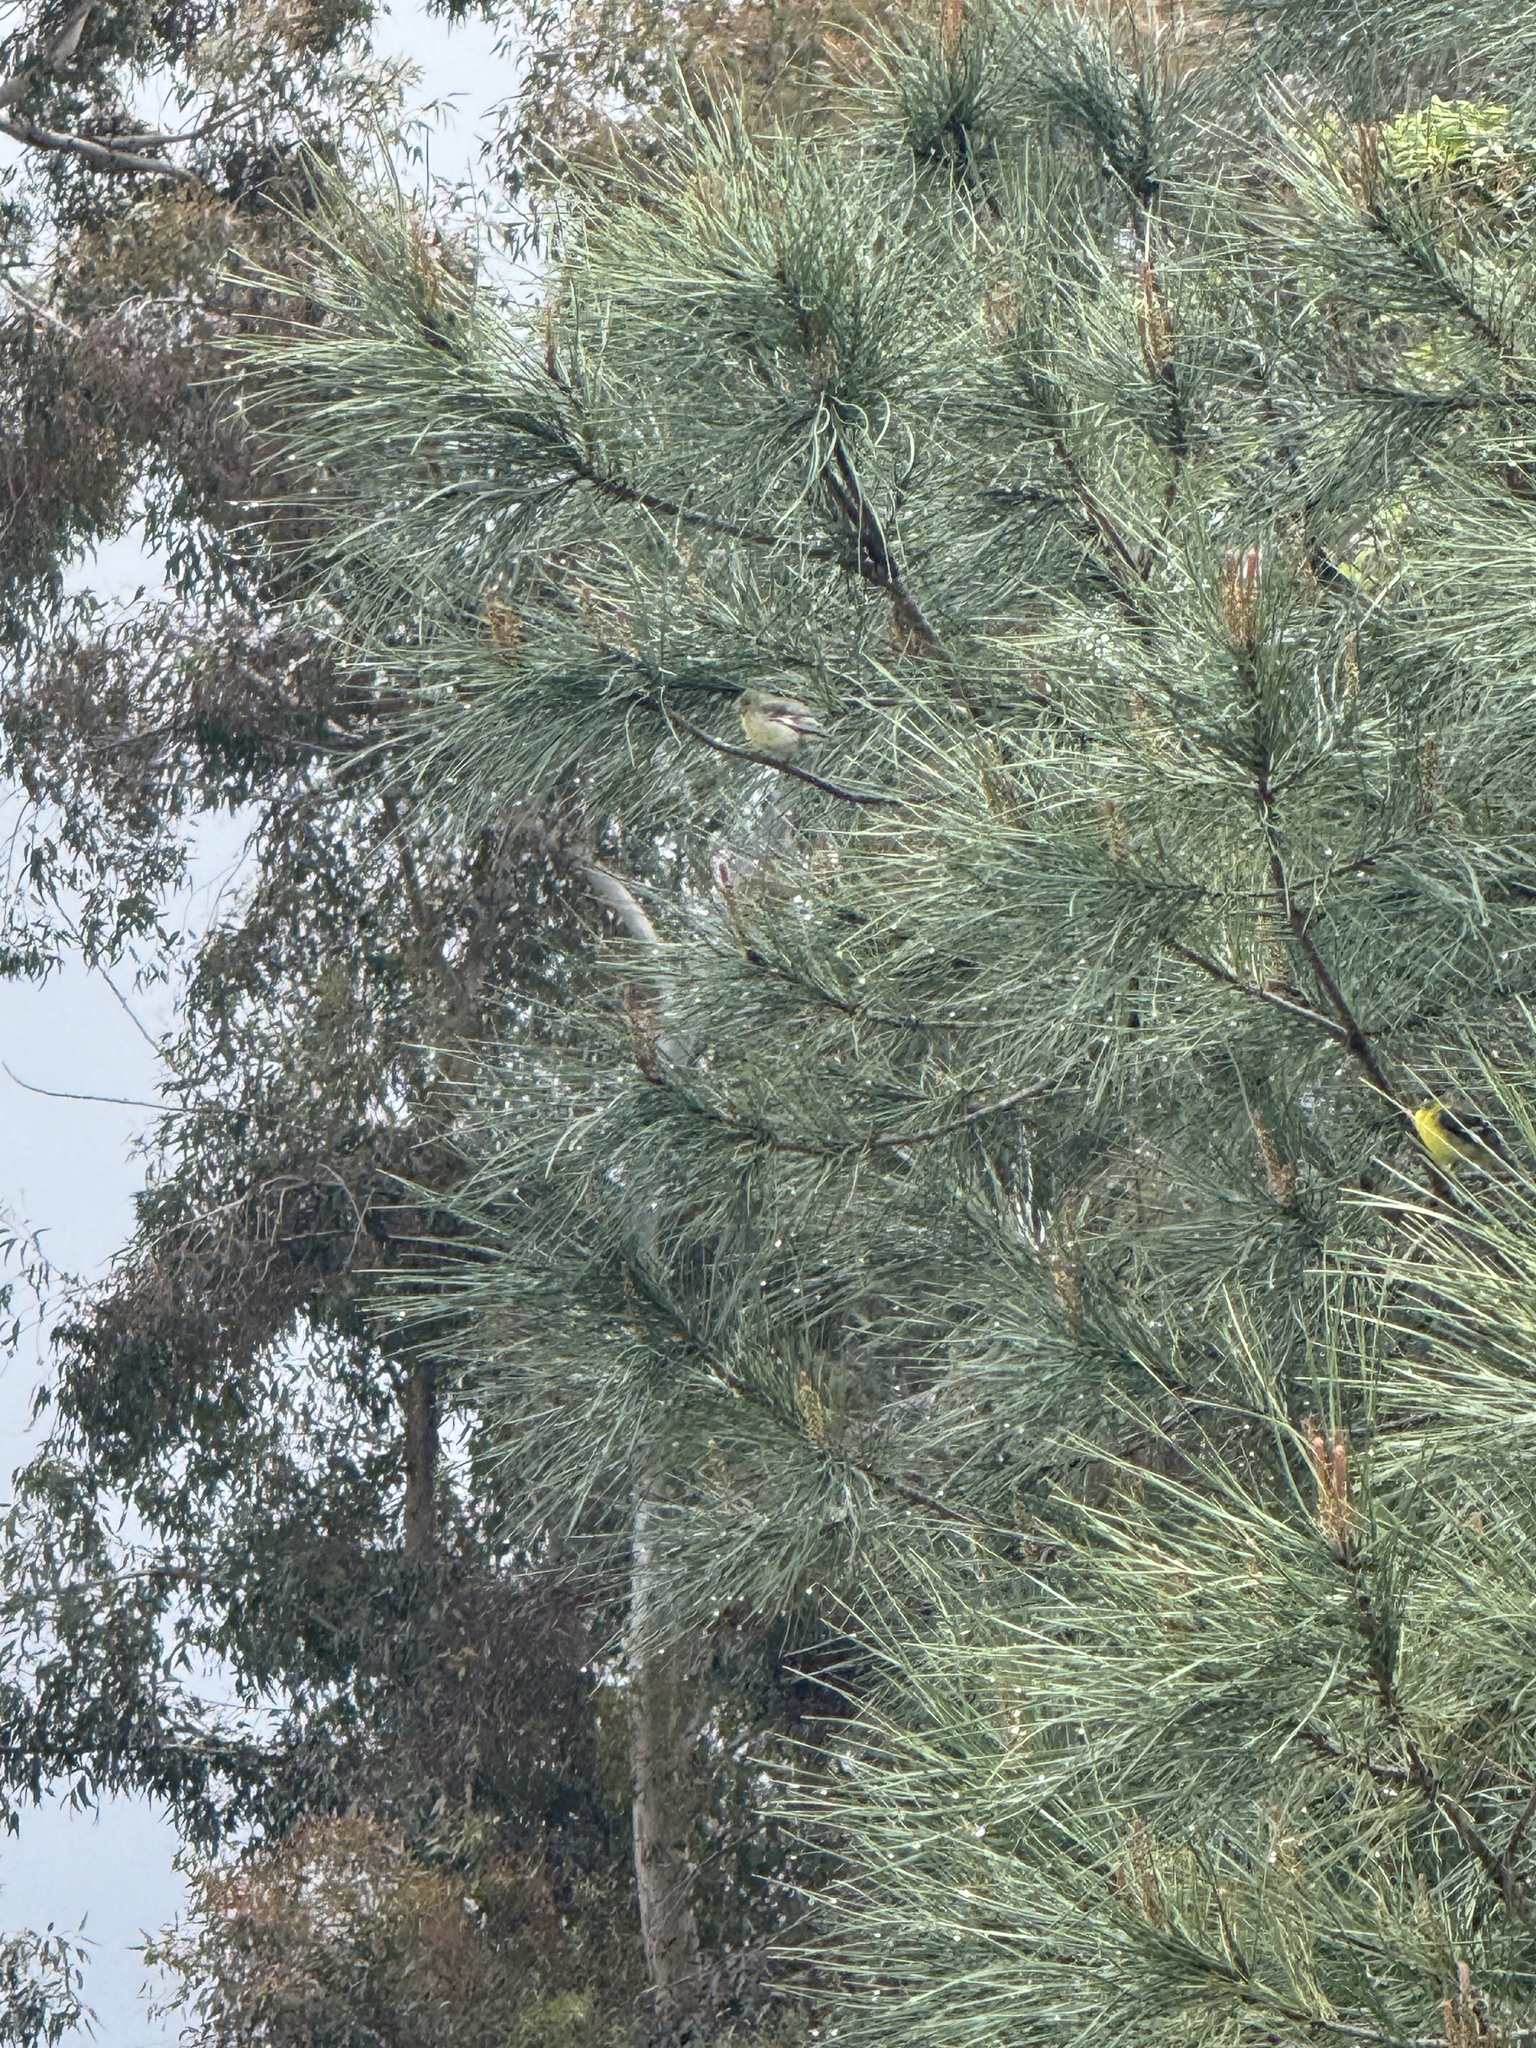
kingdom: Animalia
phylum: Chordata
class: Aves
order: Passeriformes
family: Fringillidae
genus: Spinus
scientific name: Spinus psaltria
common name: Lesser goldfinch
